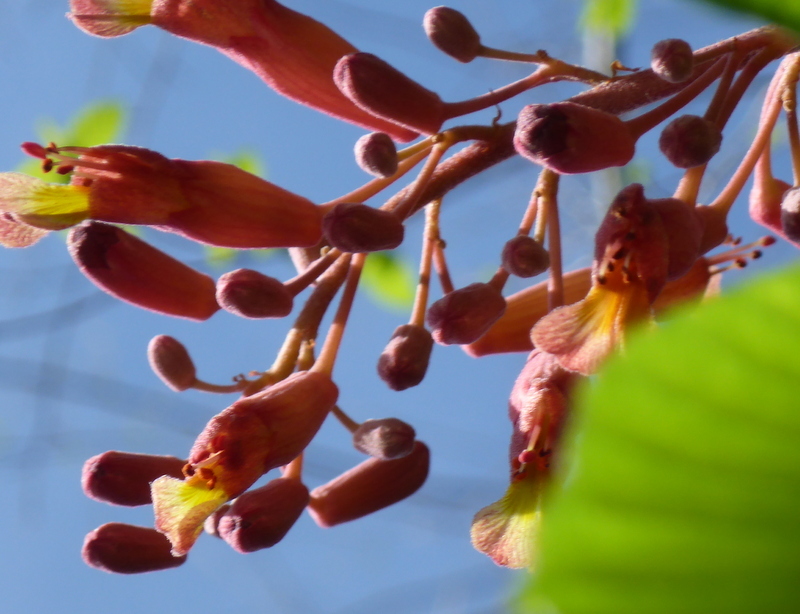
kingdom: Plantae
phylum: Tracheophyta
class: Magnoliopsida
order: Sapindales
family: Sapindaceae
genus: Aesculus
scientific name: Aesculus pavia
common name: Red buckeye
